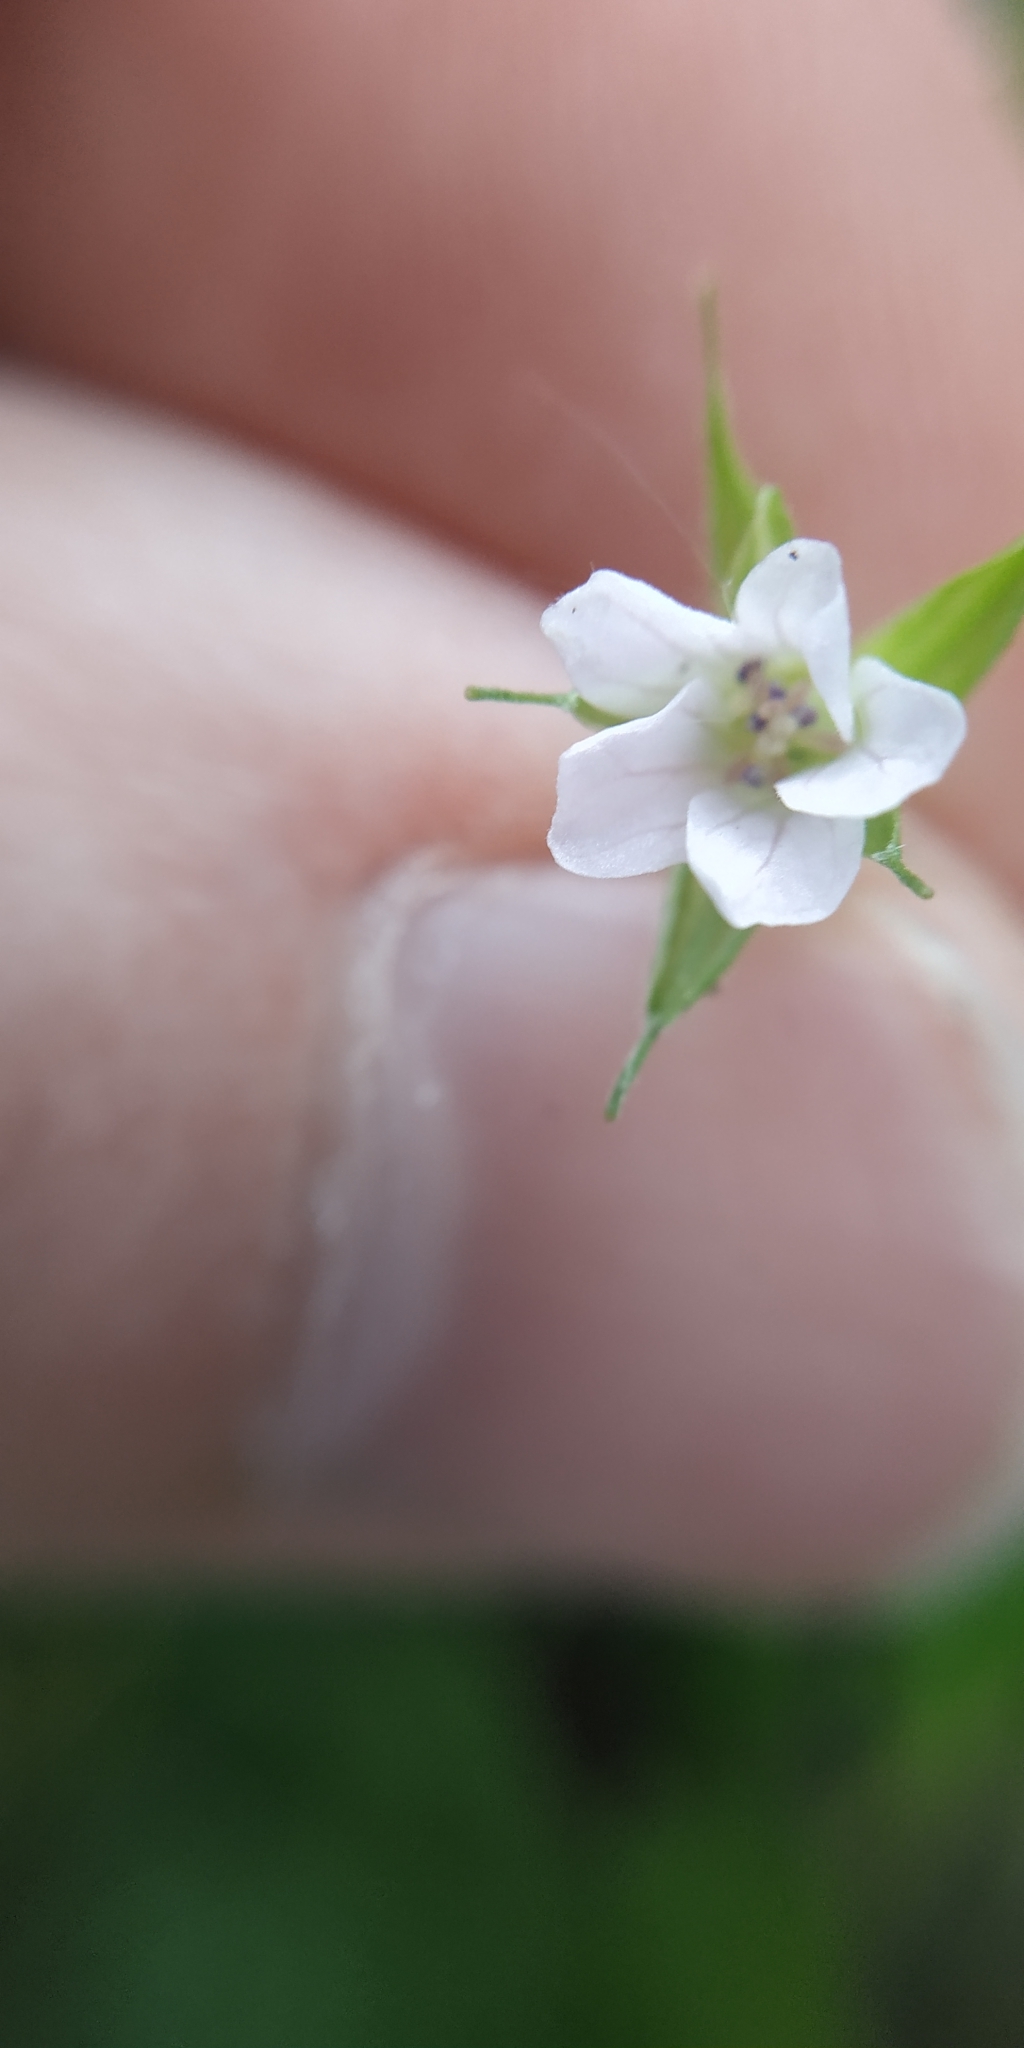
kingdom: Plantae
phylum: Tracheophyta
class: Magnoliopsida
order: Geraniales
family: Geraniaceae
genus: Geranium
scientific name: Geranium sibiricum
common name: Siberian crane's-bill
